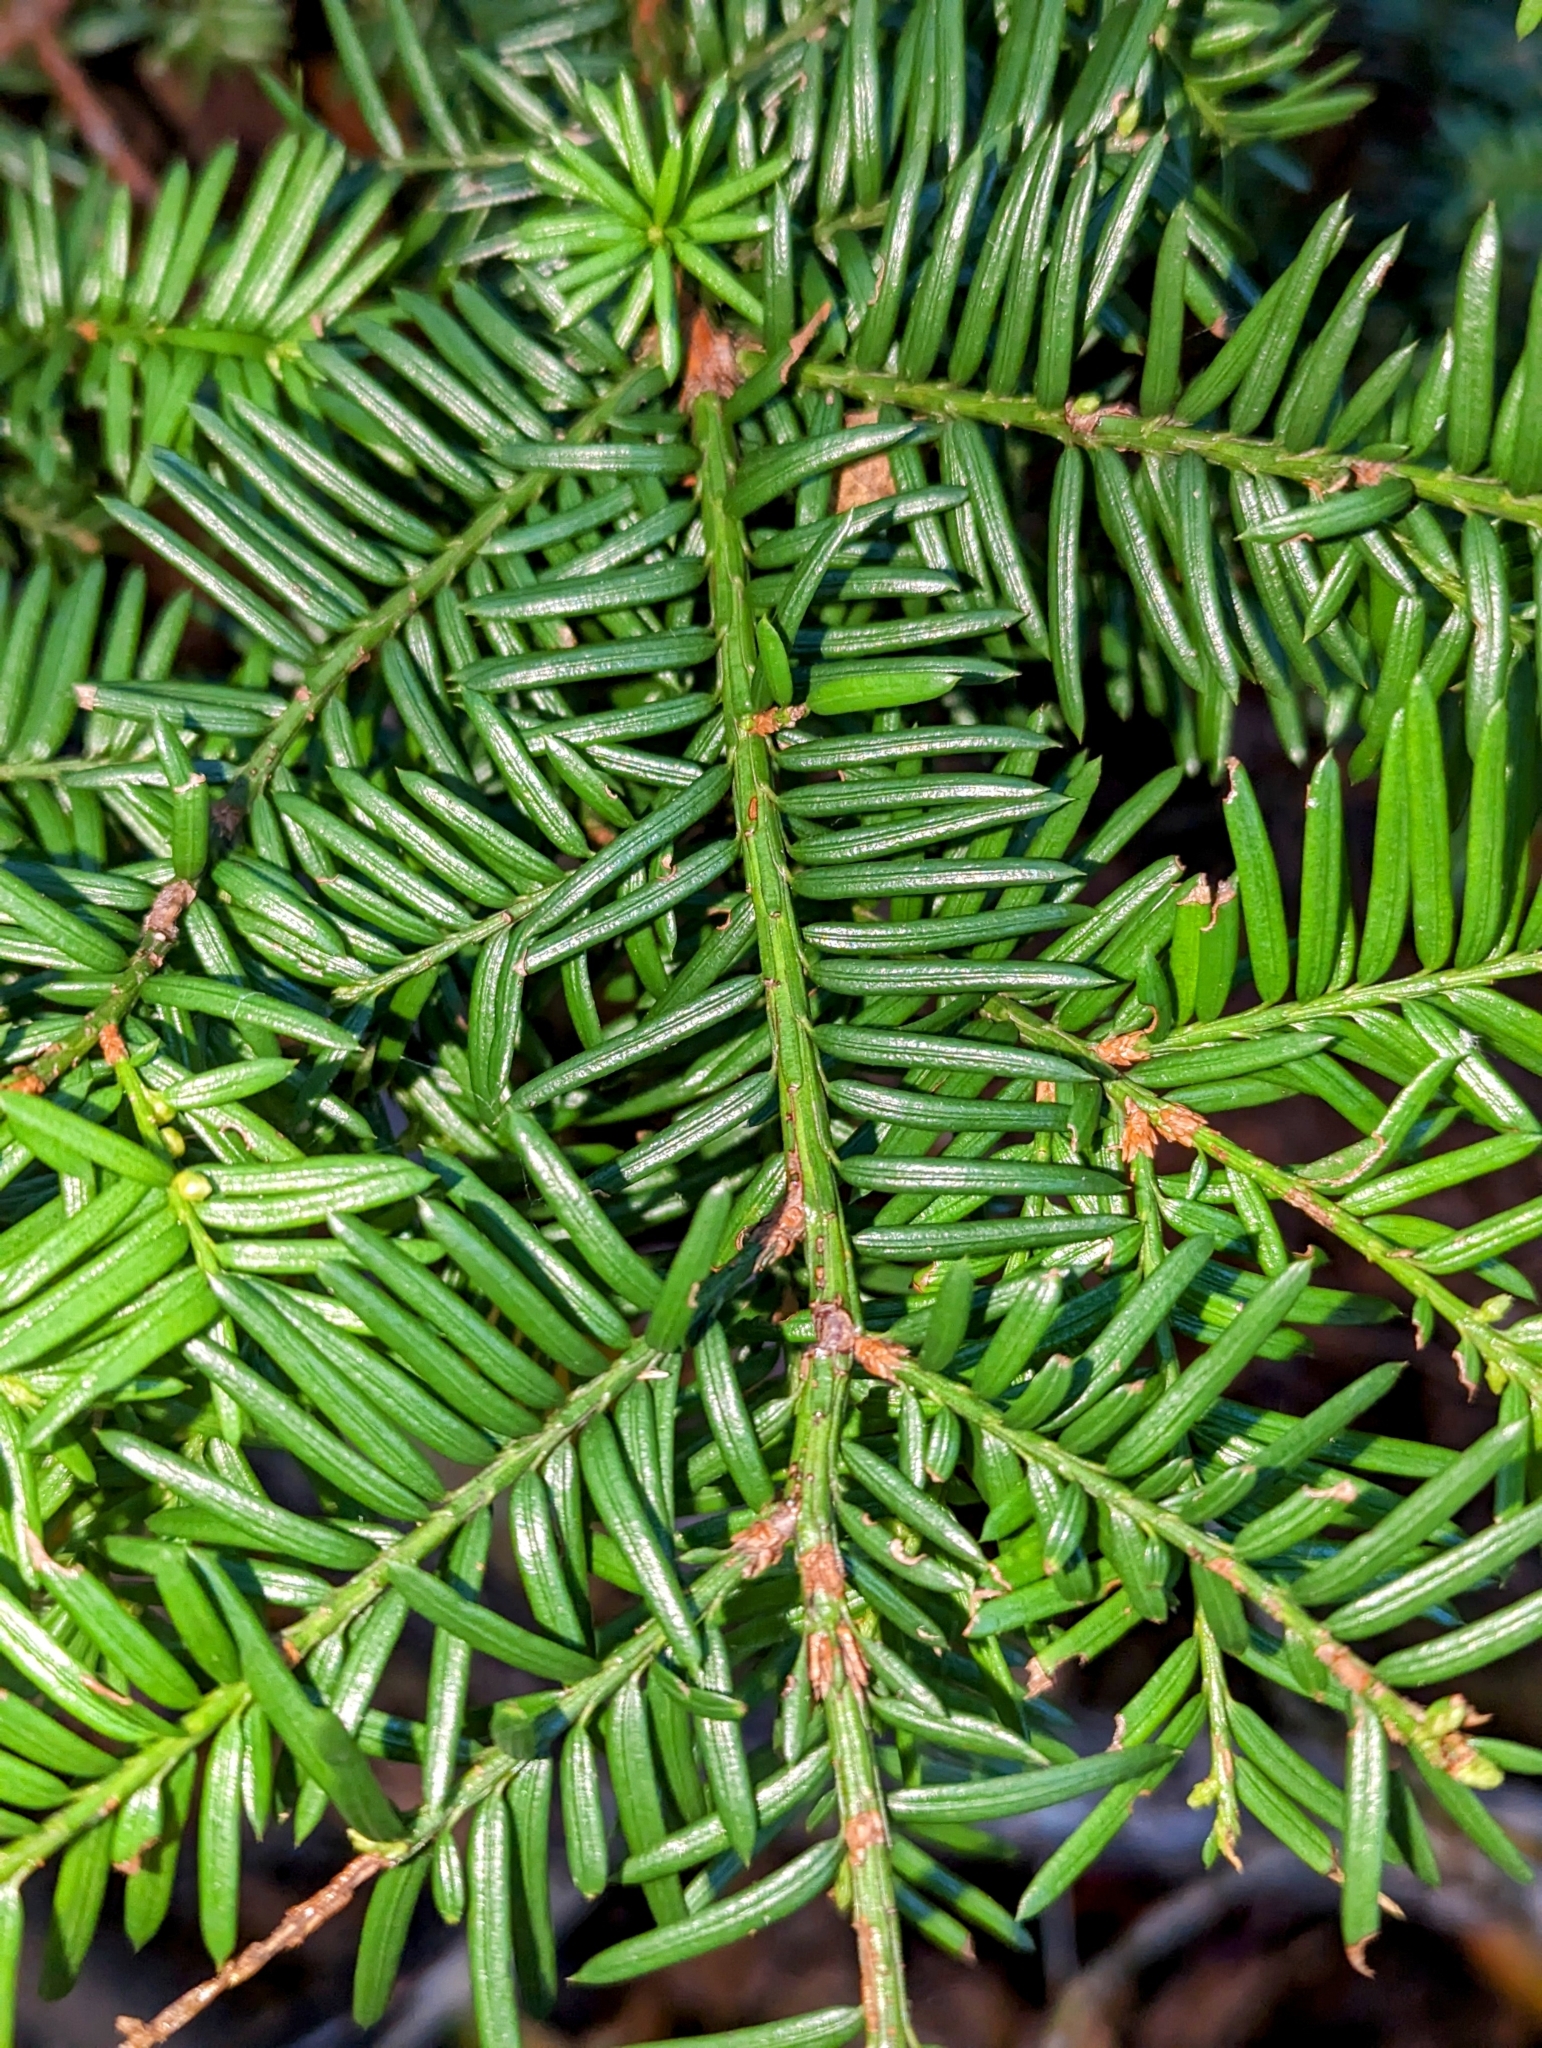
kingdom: Plantae
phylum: Tracheophyta
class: Pinopsida
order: Pinales
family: Taxaceae
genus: Taxus
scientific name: Taxus canadensis
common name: American yew
